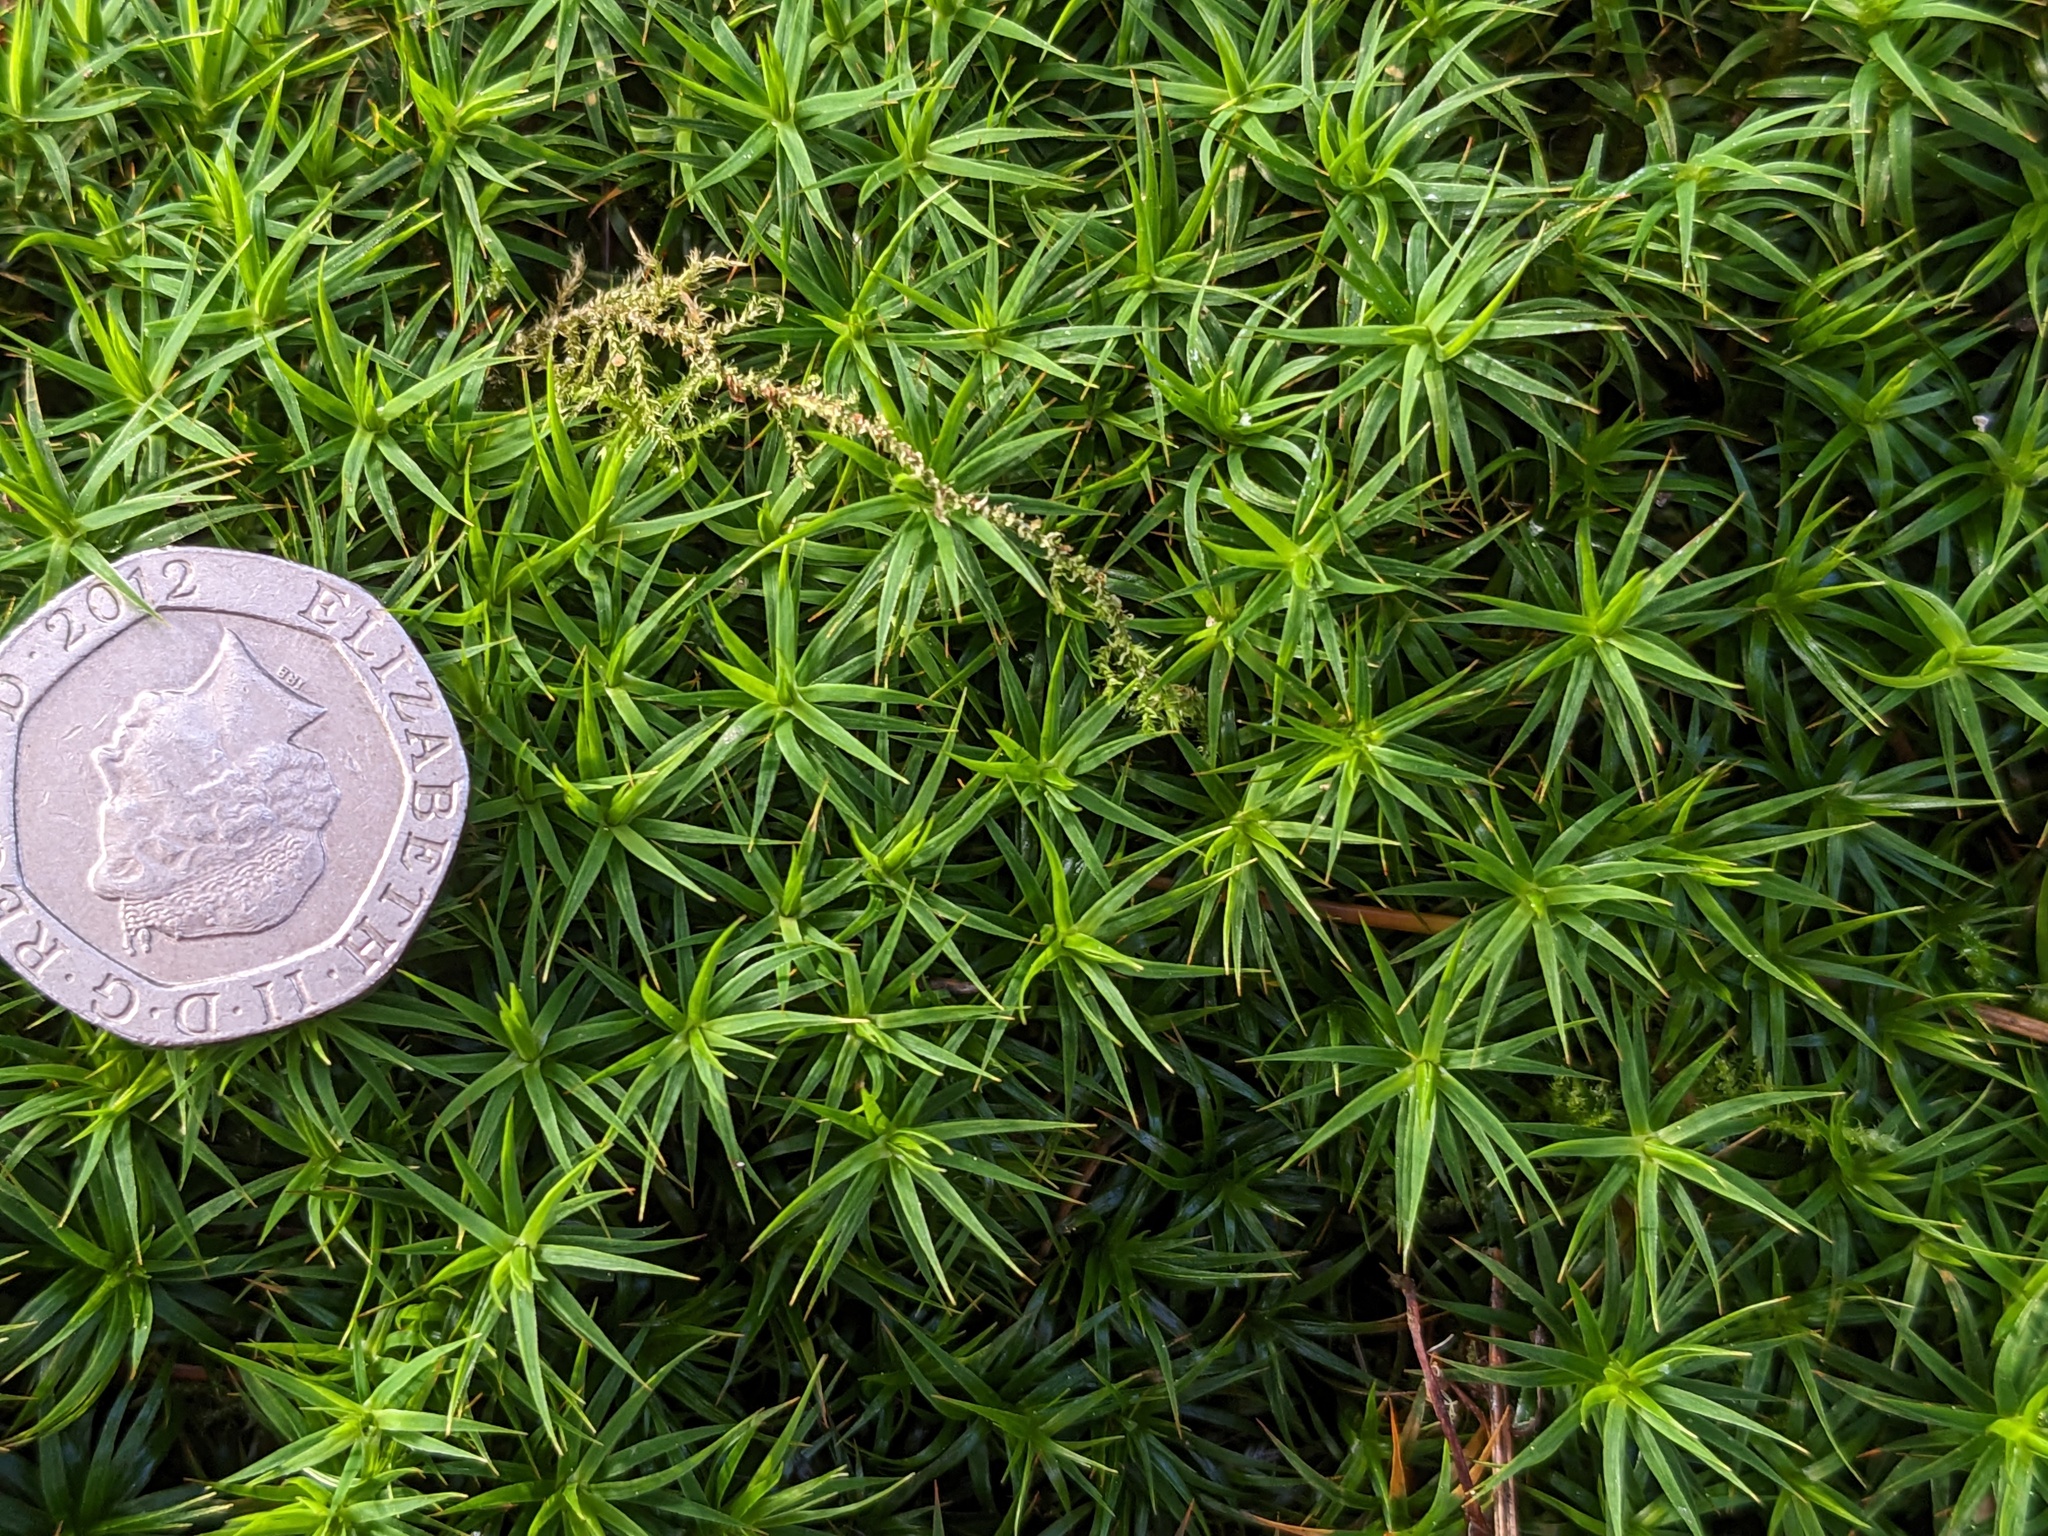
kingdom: Plantae
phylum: Bryophyta
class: Polytrichopsida
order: Polytrichales
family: Polytrichaceae
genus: Polytrichum
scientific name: Polytrichum formosum
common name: Bank haircap moss
